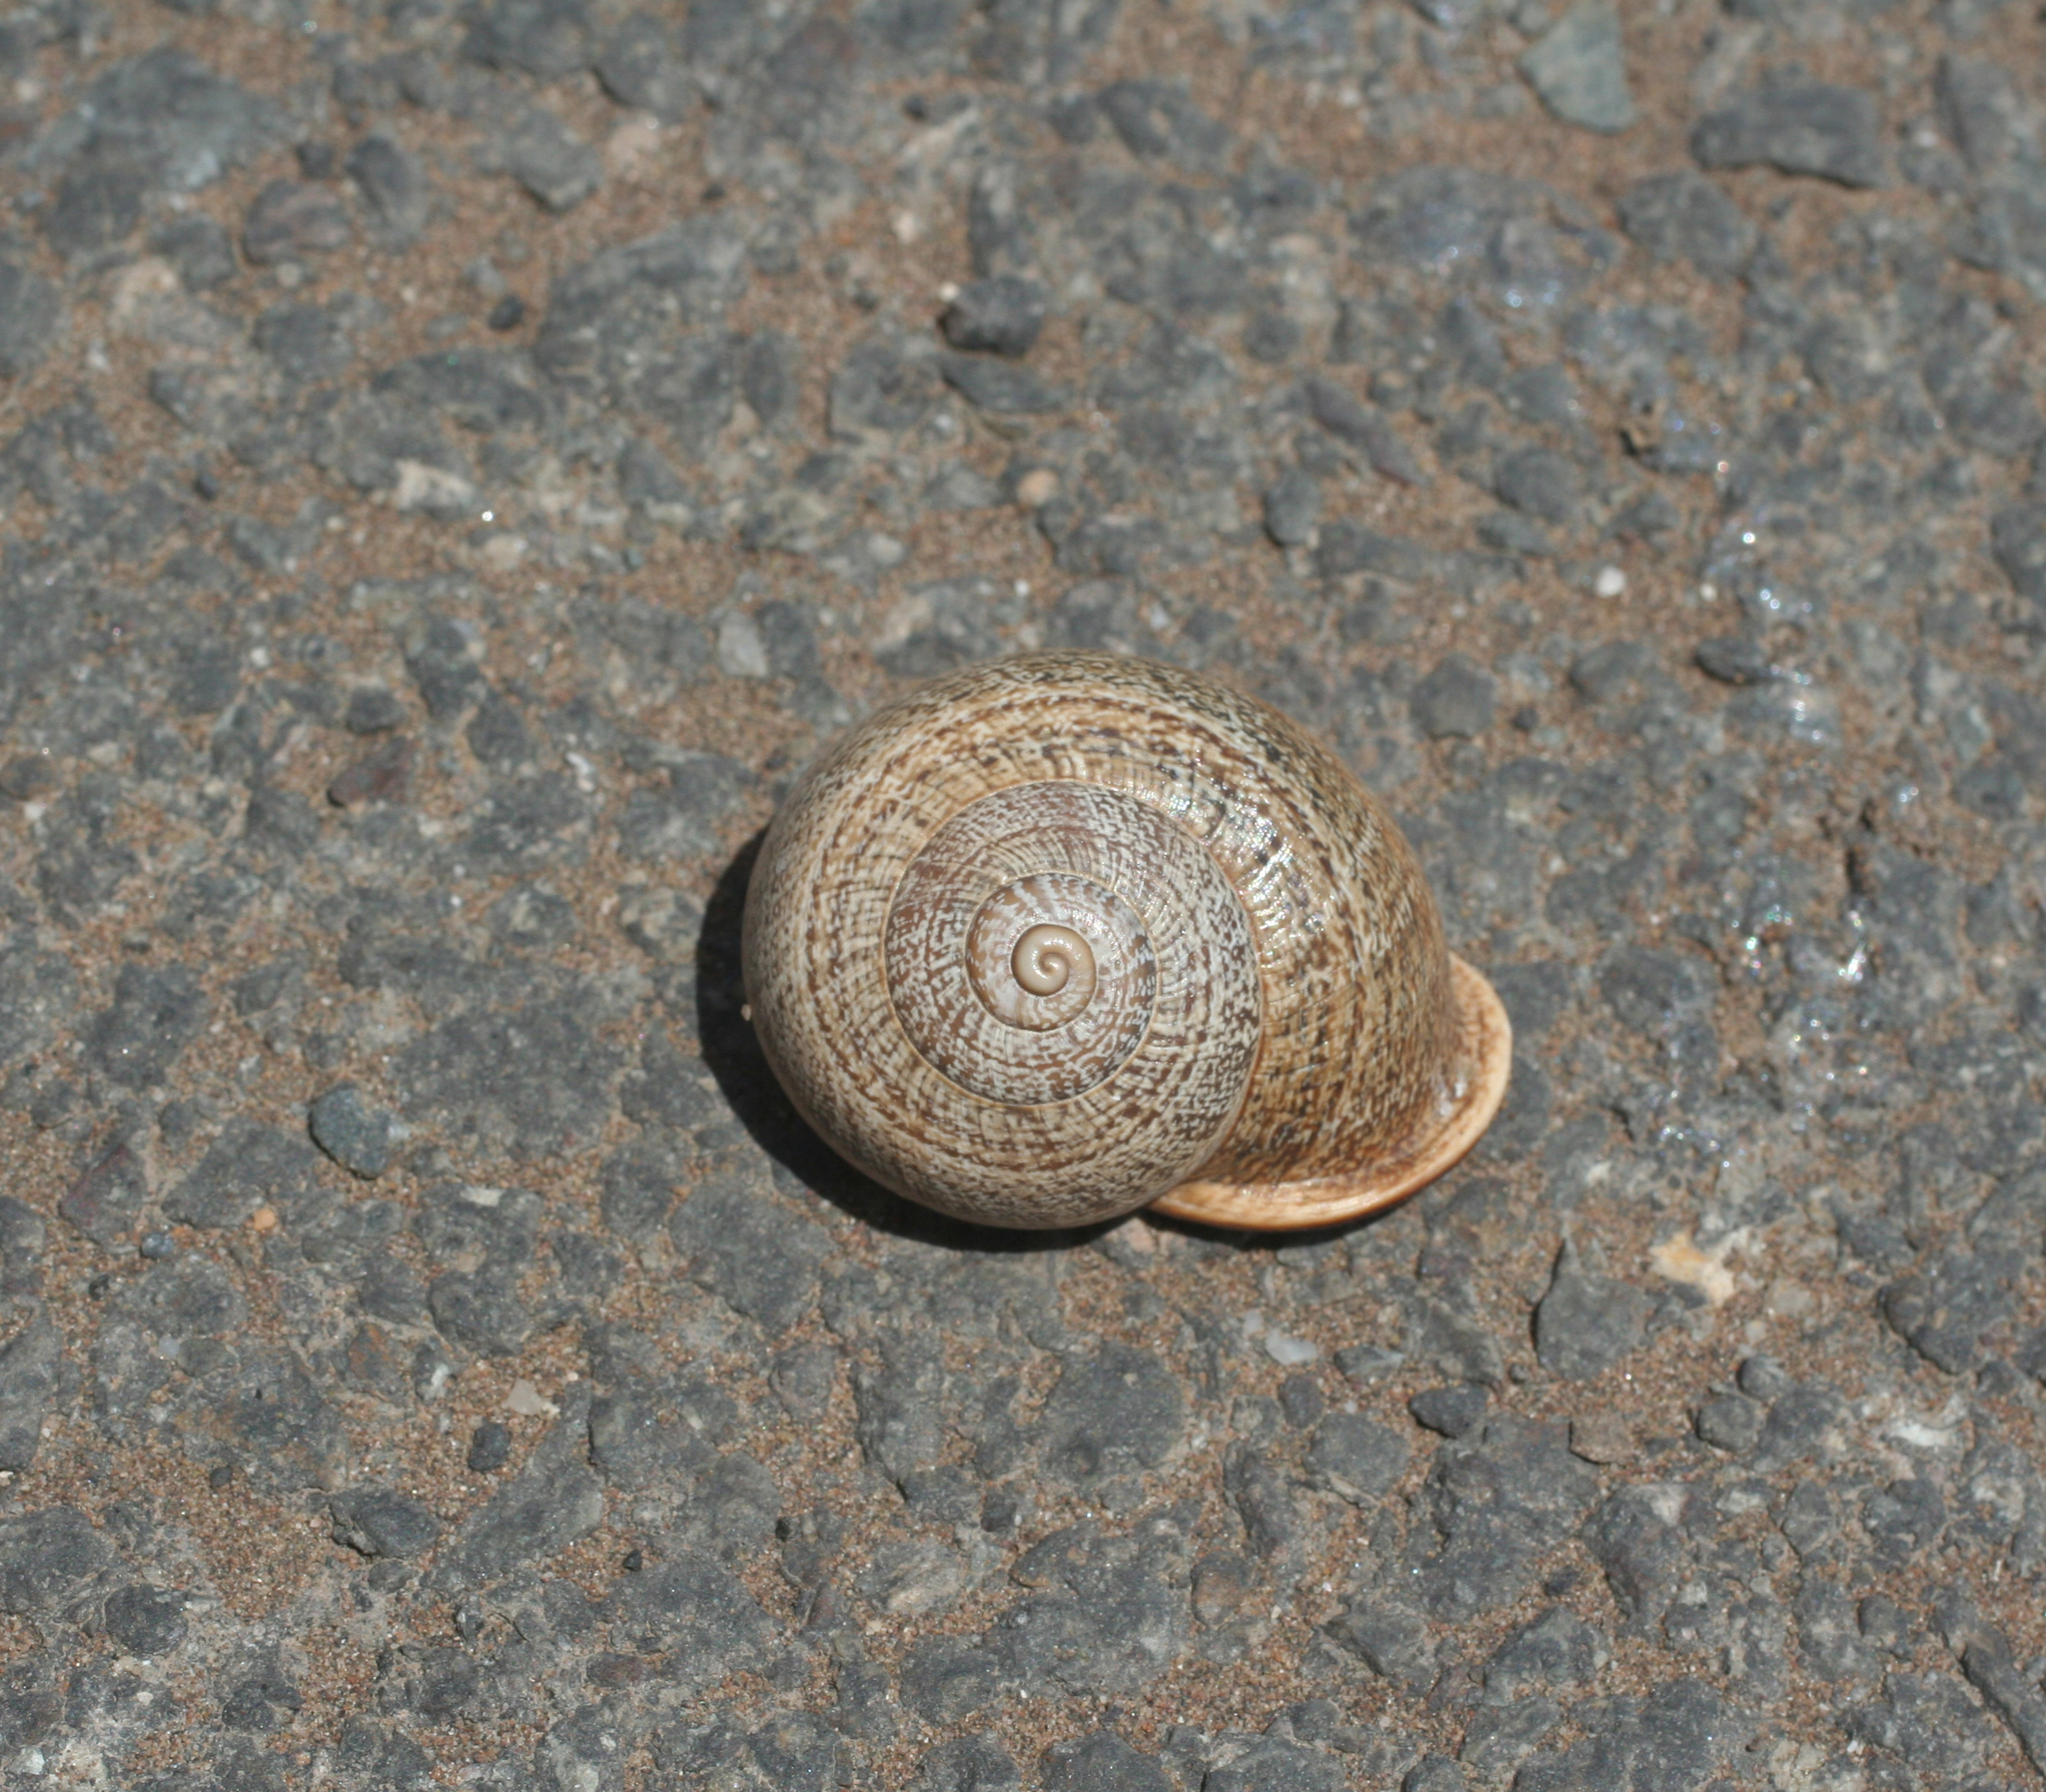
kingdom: Animalia
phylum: Mollusca
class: Gastropoda
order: Stylommatophora
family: Helicidae
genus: Otala
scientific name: Otala lactea
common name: Milk snail
